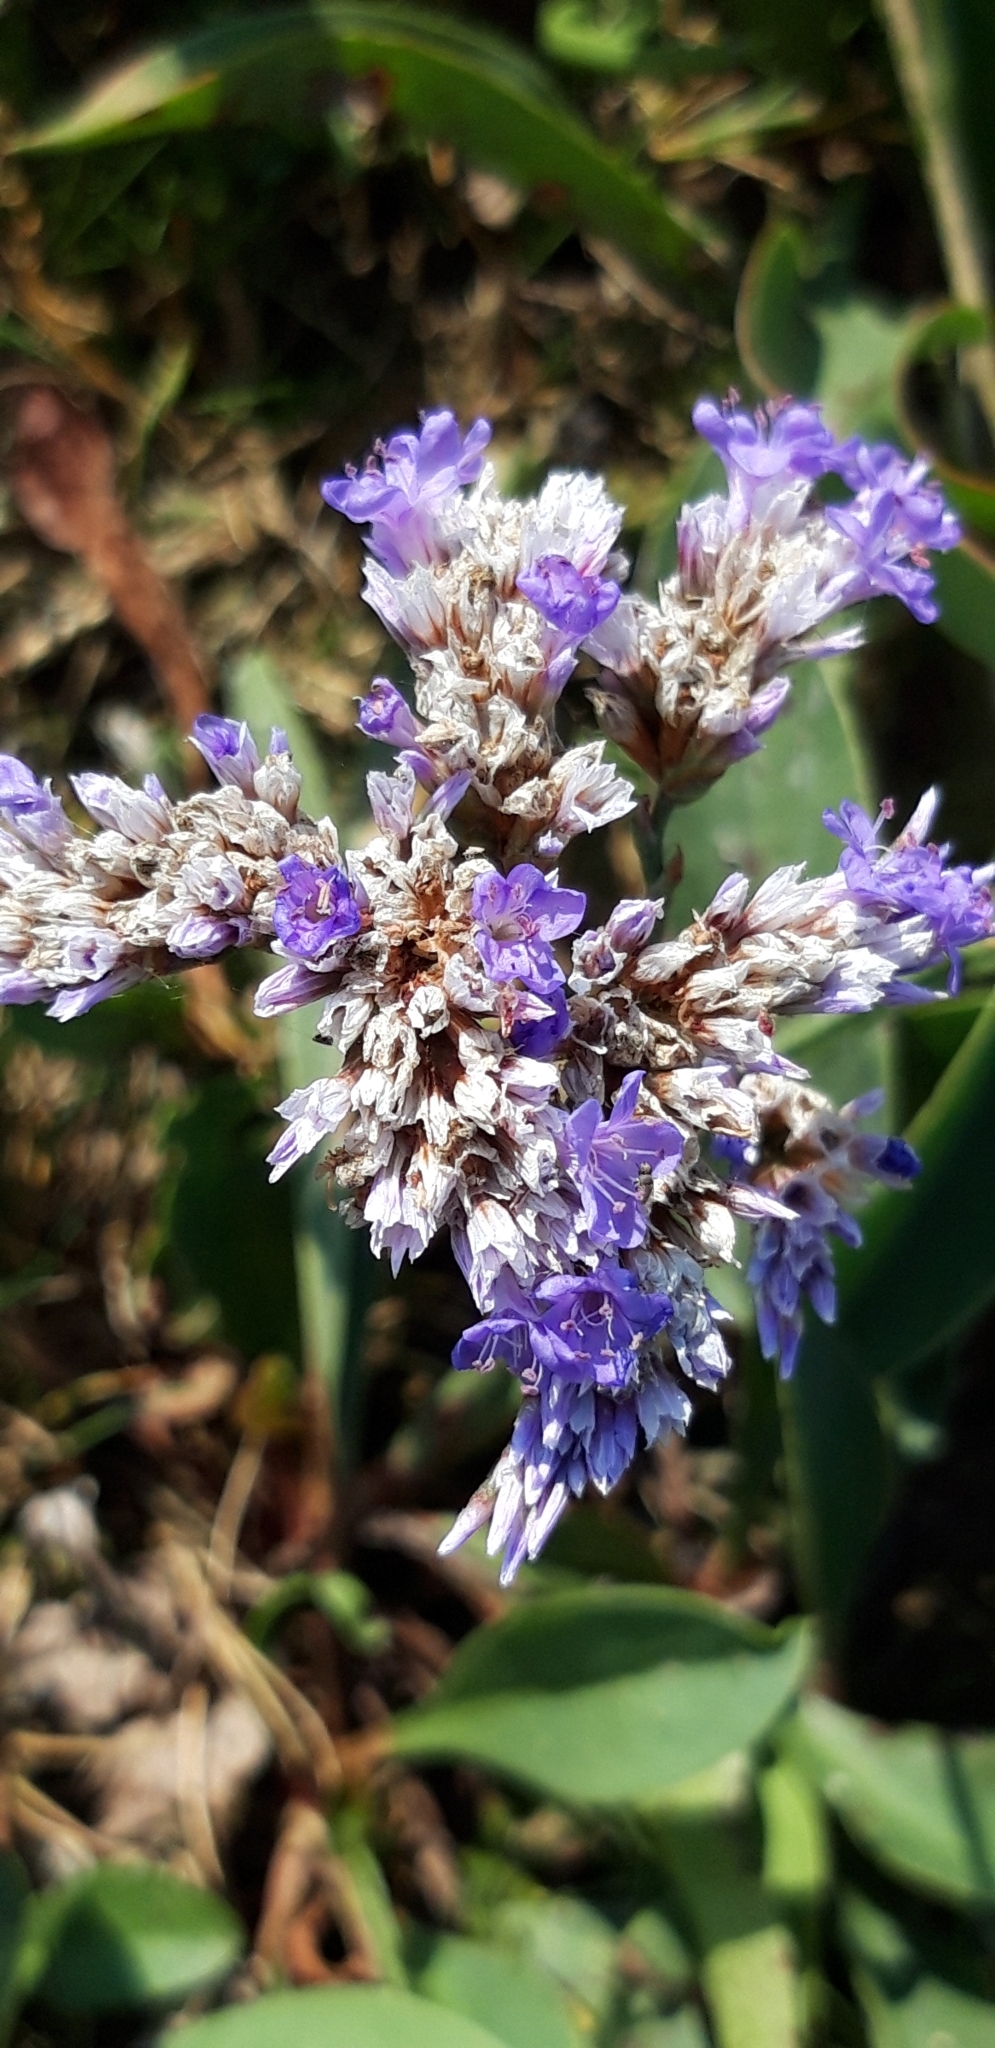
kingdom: Plantae
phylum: Tracheophyta
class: Magnoliopsida
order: Caryophyllales
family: Plumbaginaceae
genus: Limonium
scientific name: Limonium vulgare
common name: Common sea-lavender
